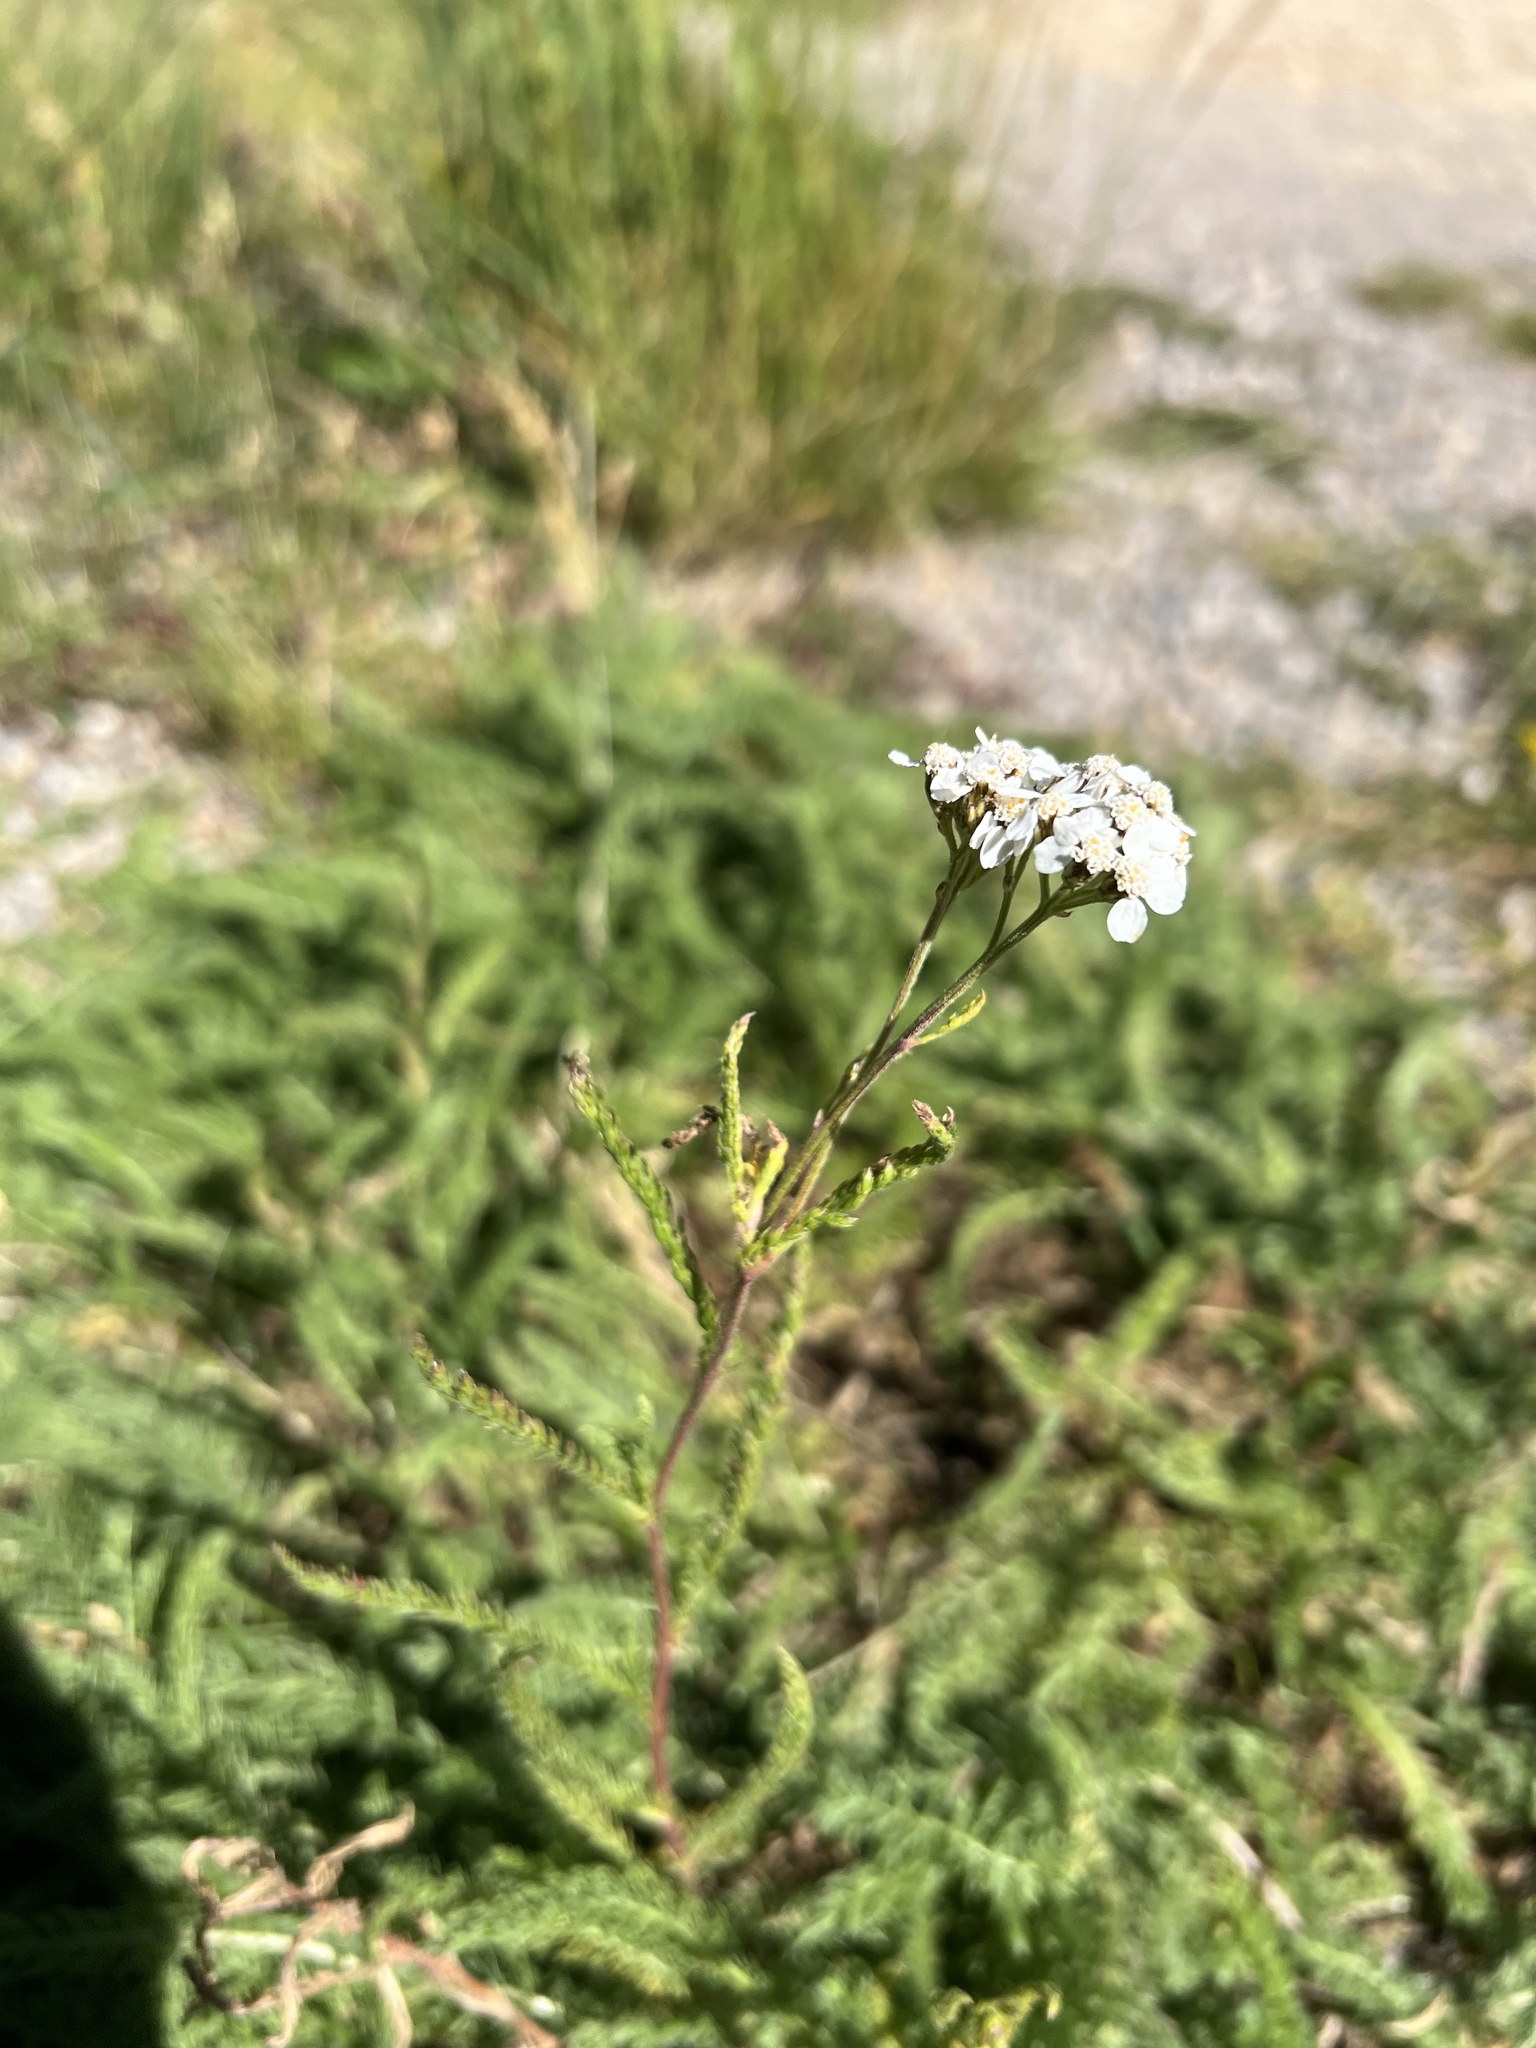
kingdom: Plantae
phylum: Tracheophyta
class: Magnoliopsida
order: Asterales
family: Asteraceae
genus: Achillea
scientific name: Achillea millefolium
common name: Yarrow
